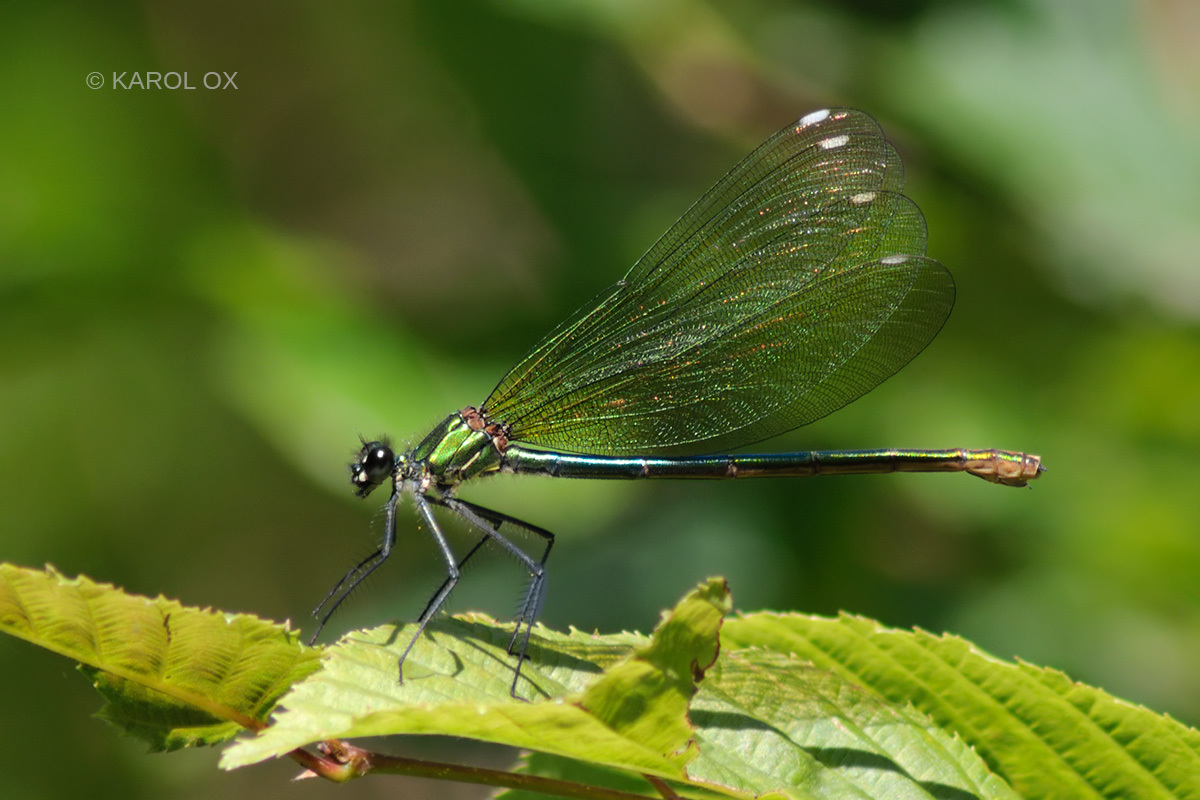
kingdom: Animalia
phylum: Arthropoda
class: Insecta
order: Odonata
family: Calopterygidae
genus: Calopteryx
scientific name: Calopteryx splendens
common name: Banded demoiselle
